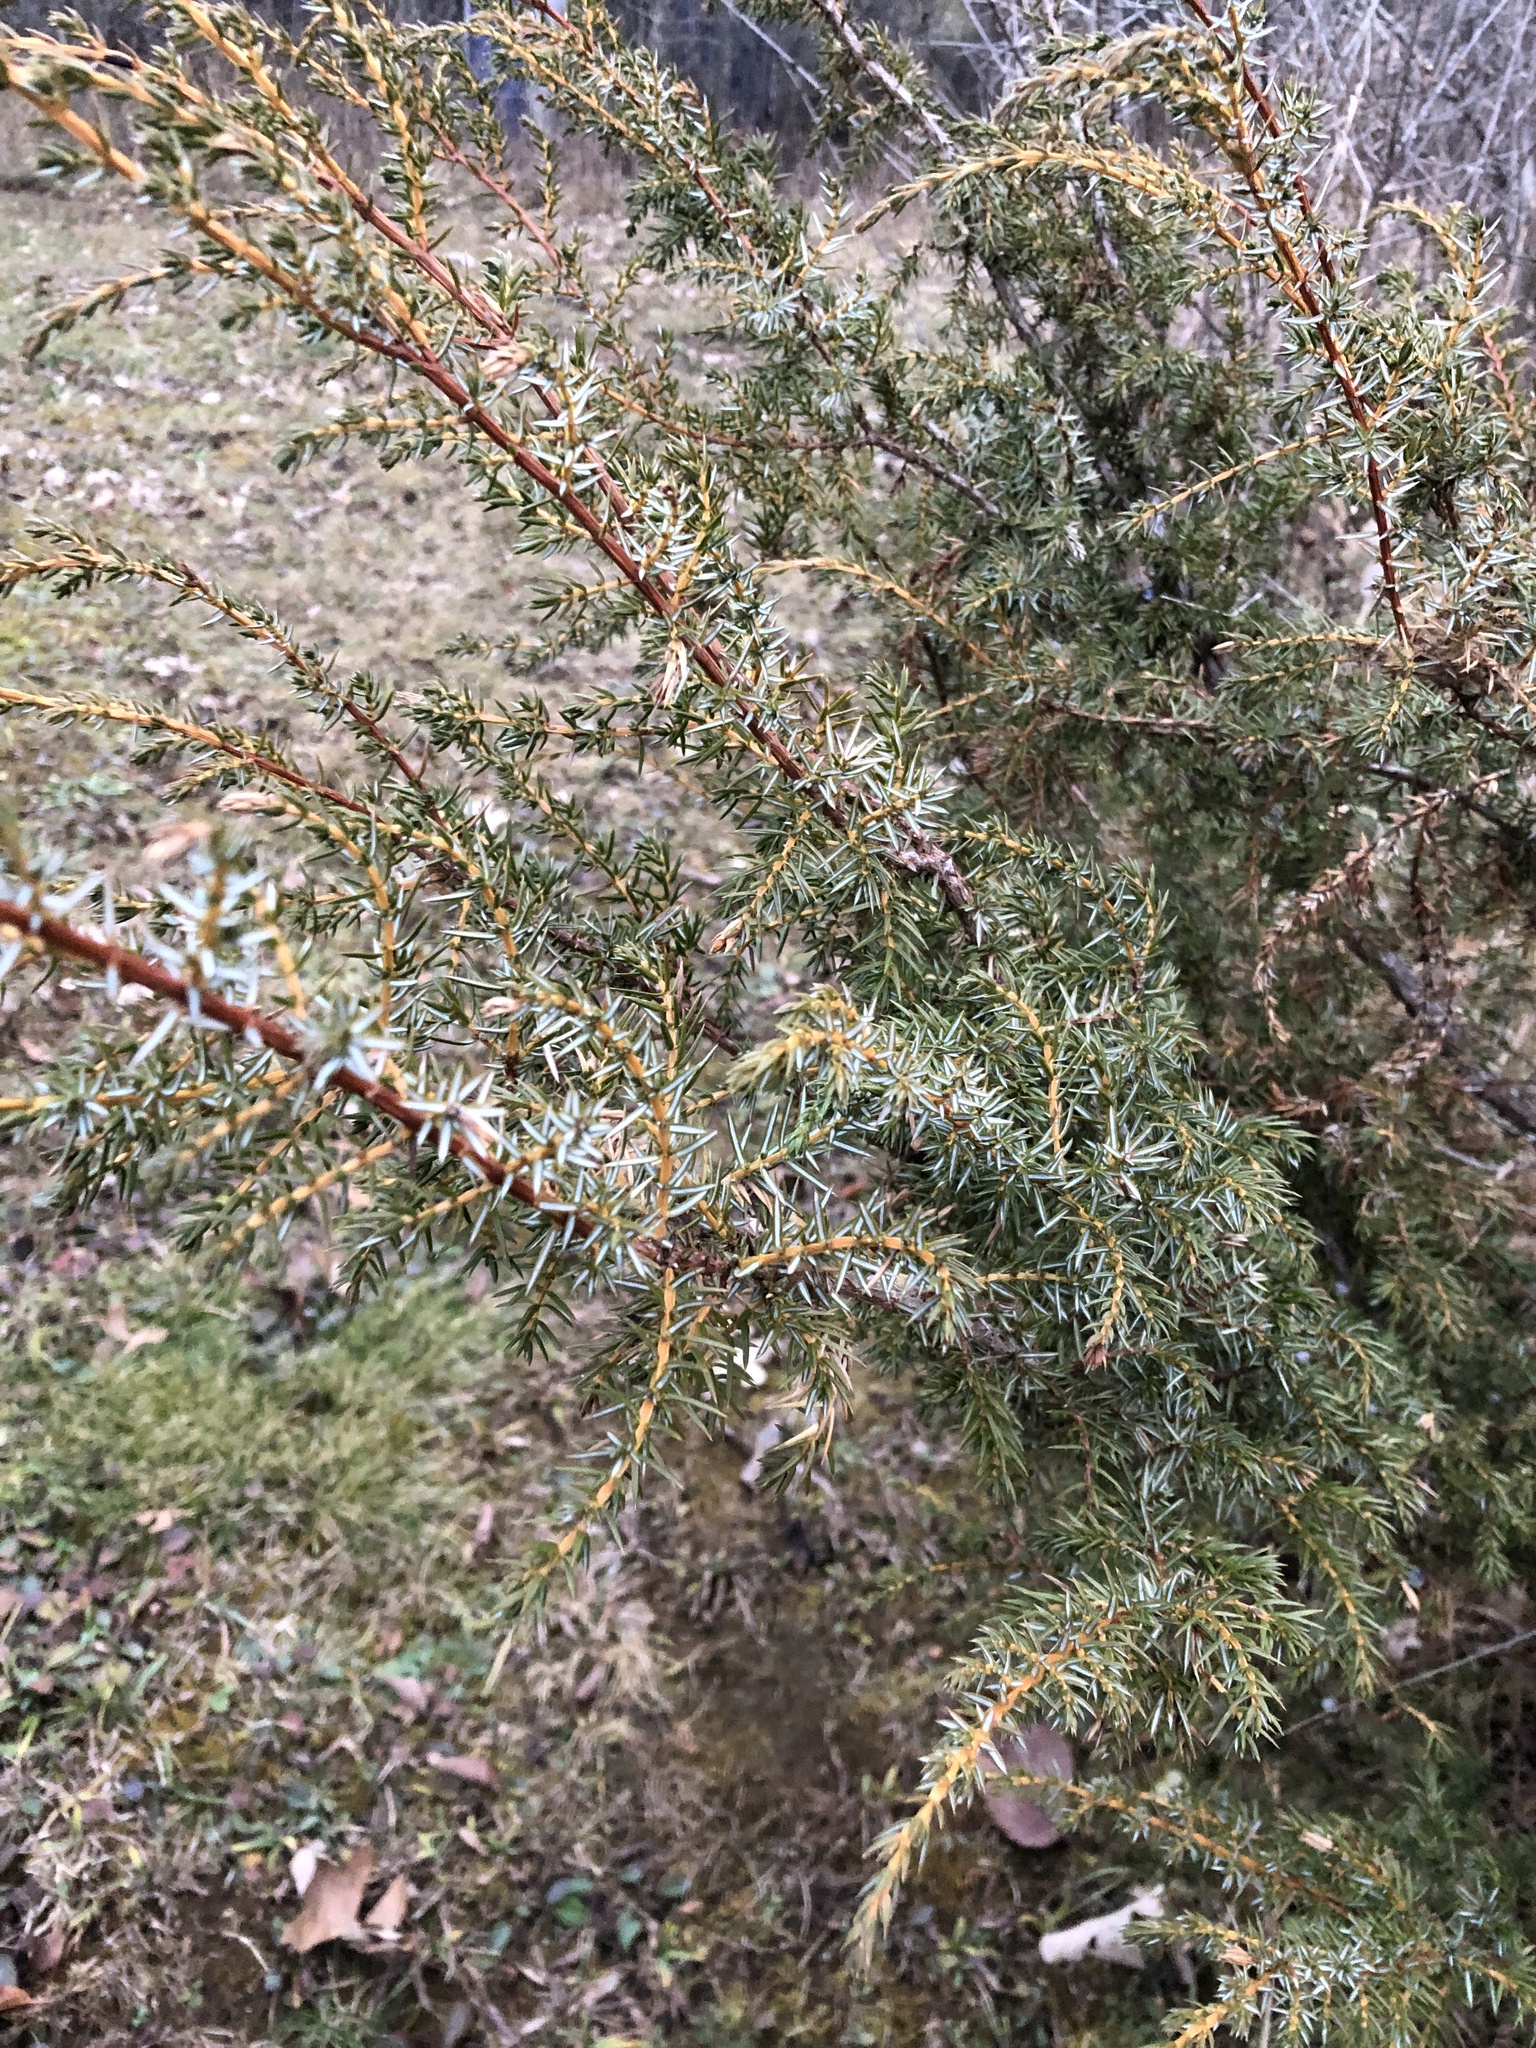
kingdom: Plantae
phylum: Tracheophyta
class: Pinopsida
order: Pinales
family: Cupressaceae
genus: Juniperus
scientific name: Juniperus communis
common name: Common juniper
